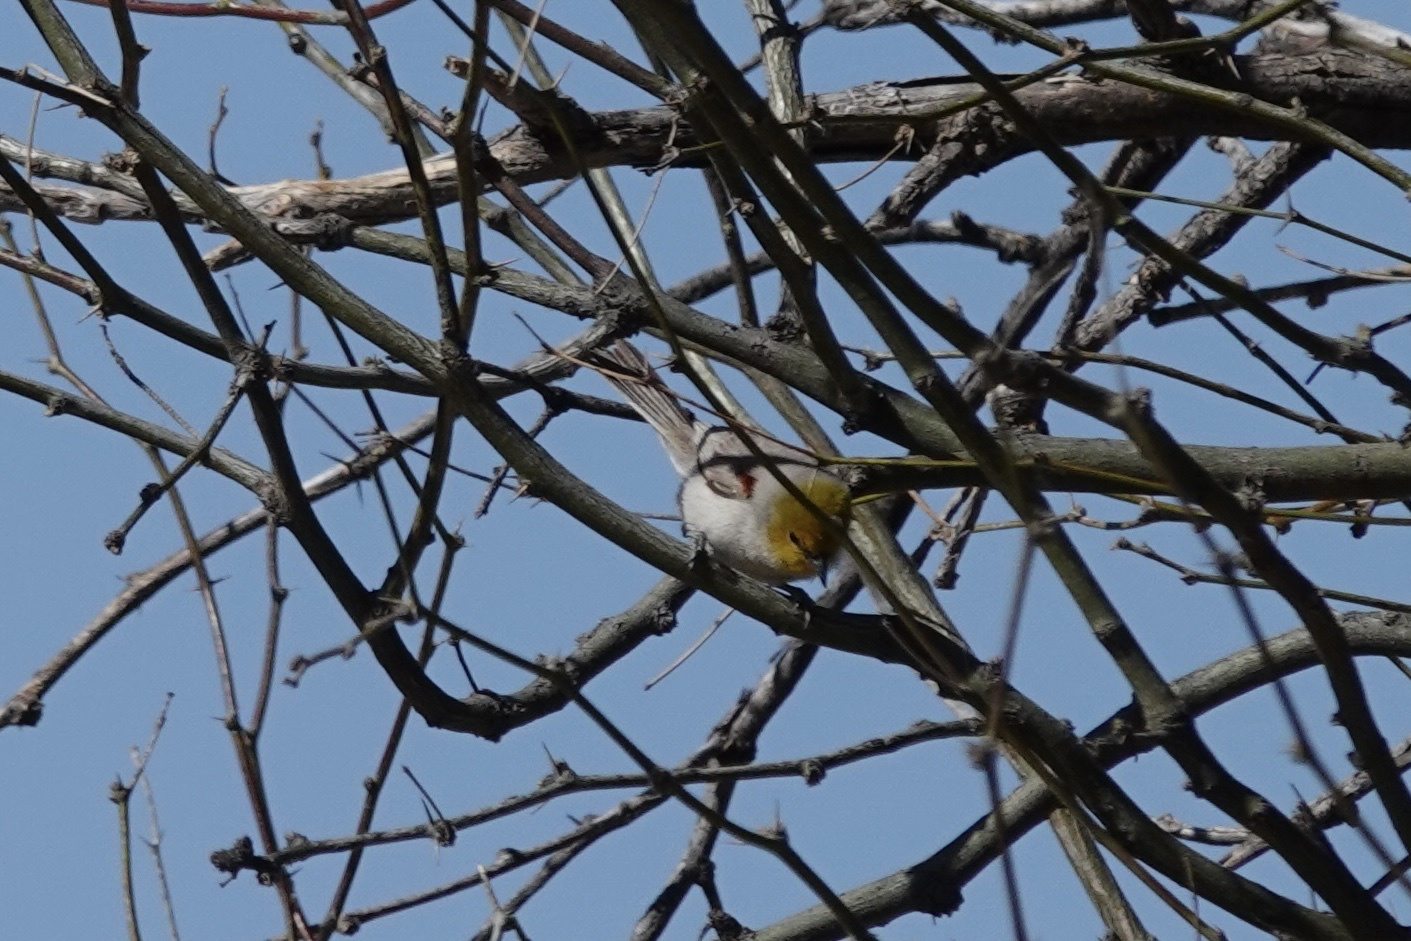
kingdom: Animalia
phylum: Chordata
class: Aves
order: Passeriformes
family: Remizidae
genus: Auriparus
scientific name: Auriparus flaviceps
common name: Verdin
